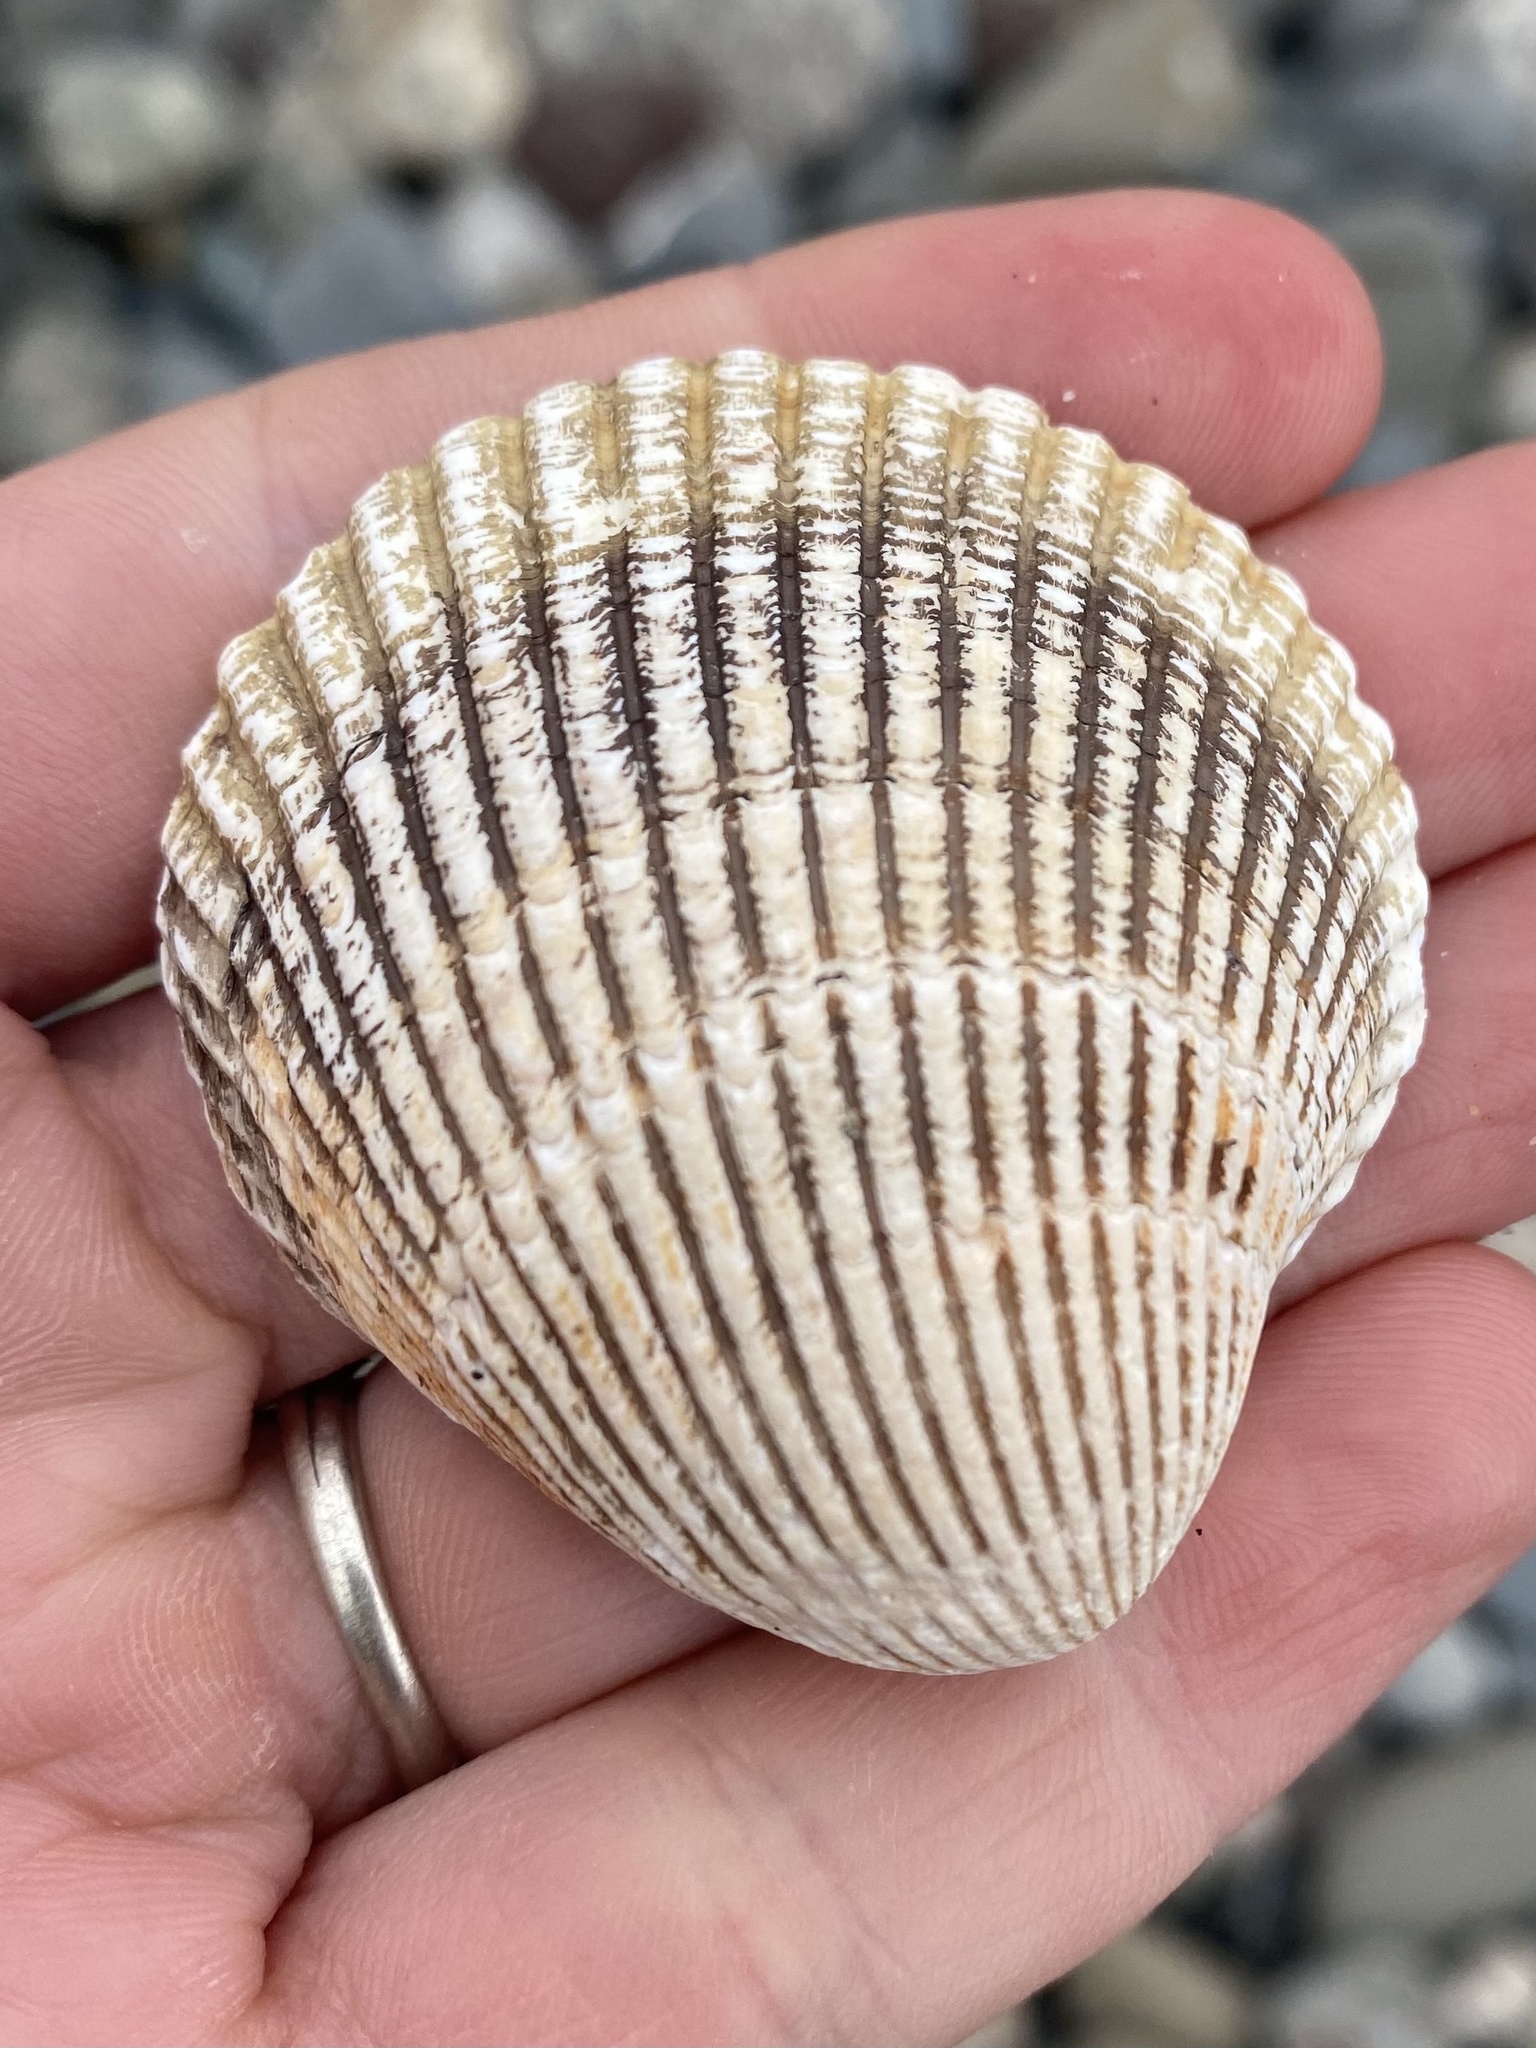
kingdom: Animalia
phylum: Mollusca
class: Bivalvia
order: Cardiida
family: Cardiidae
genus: Clinocardium
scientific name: Clinocardium nuttallii
